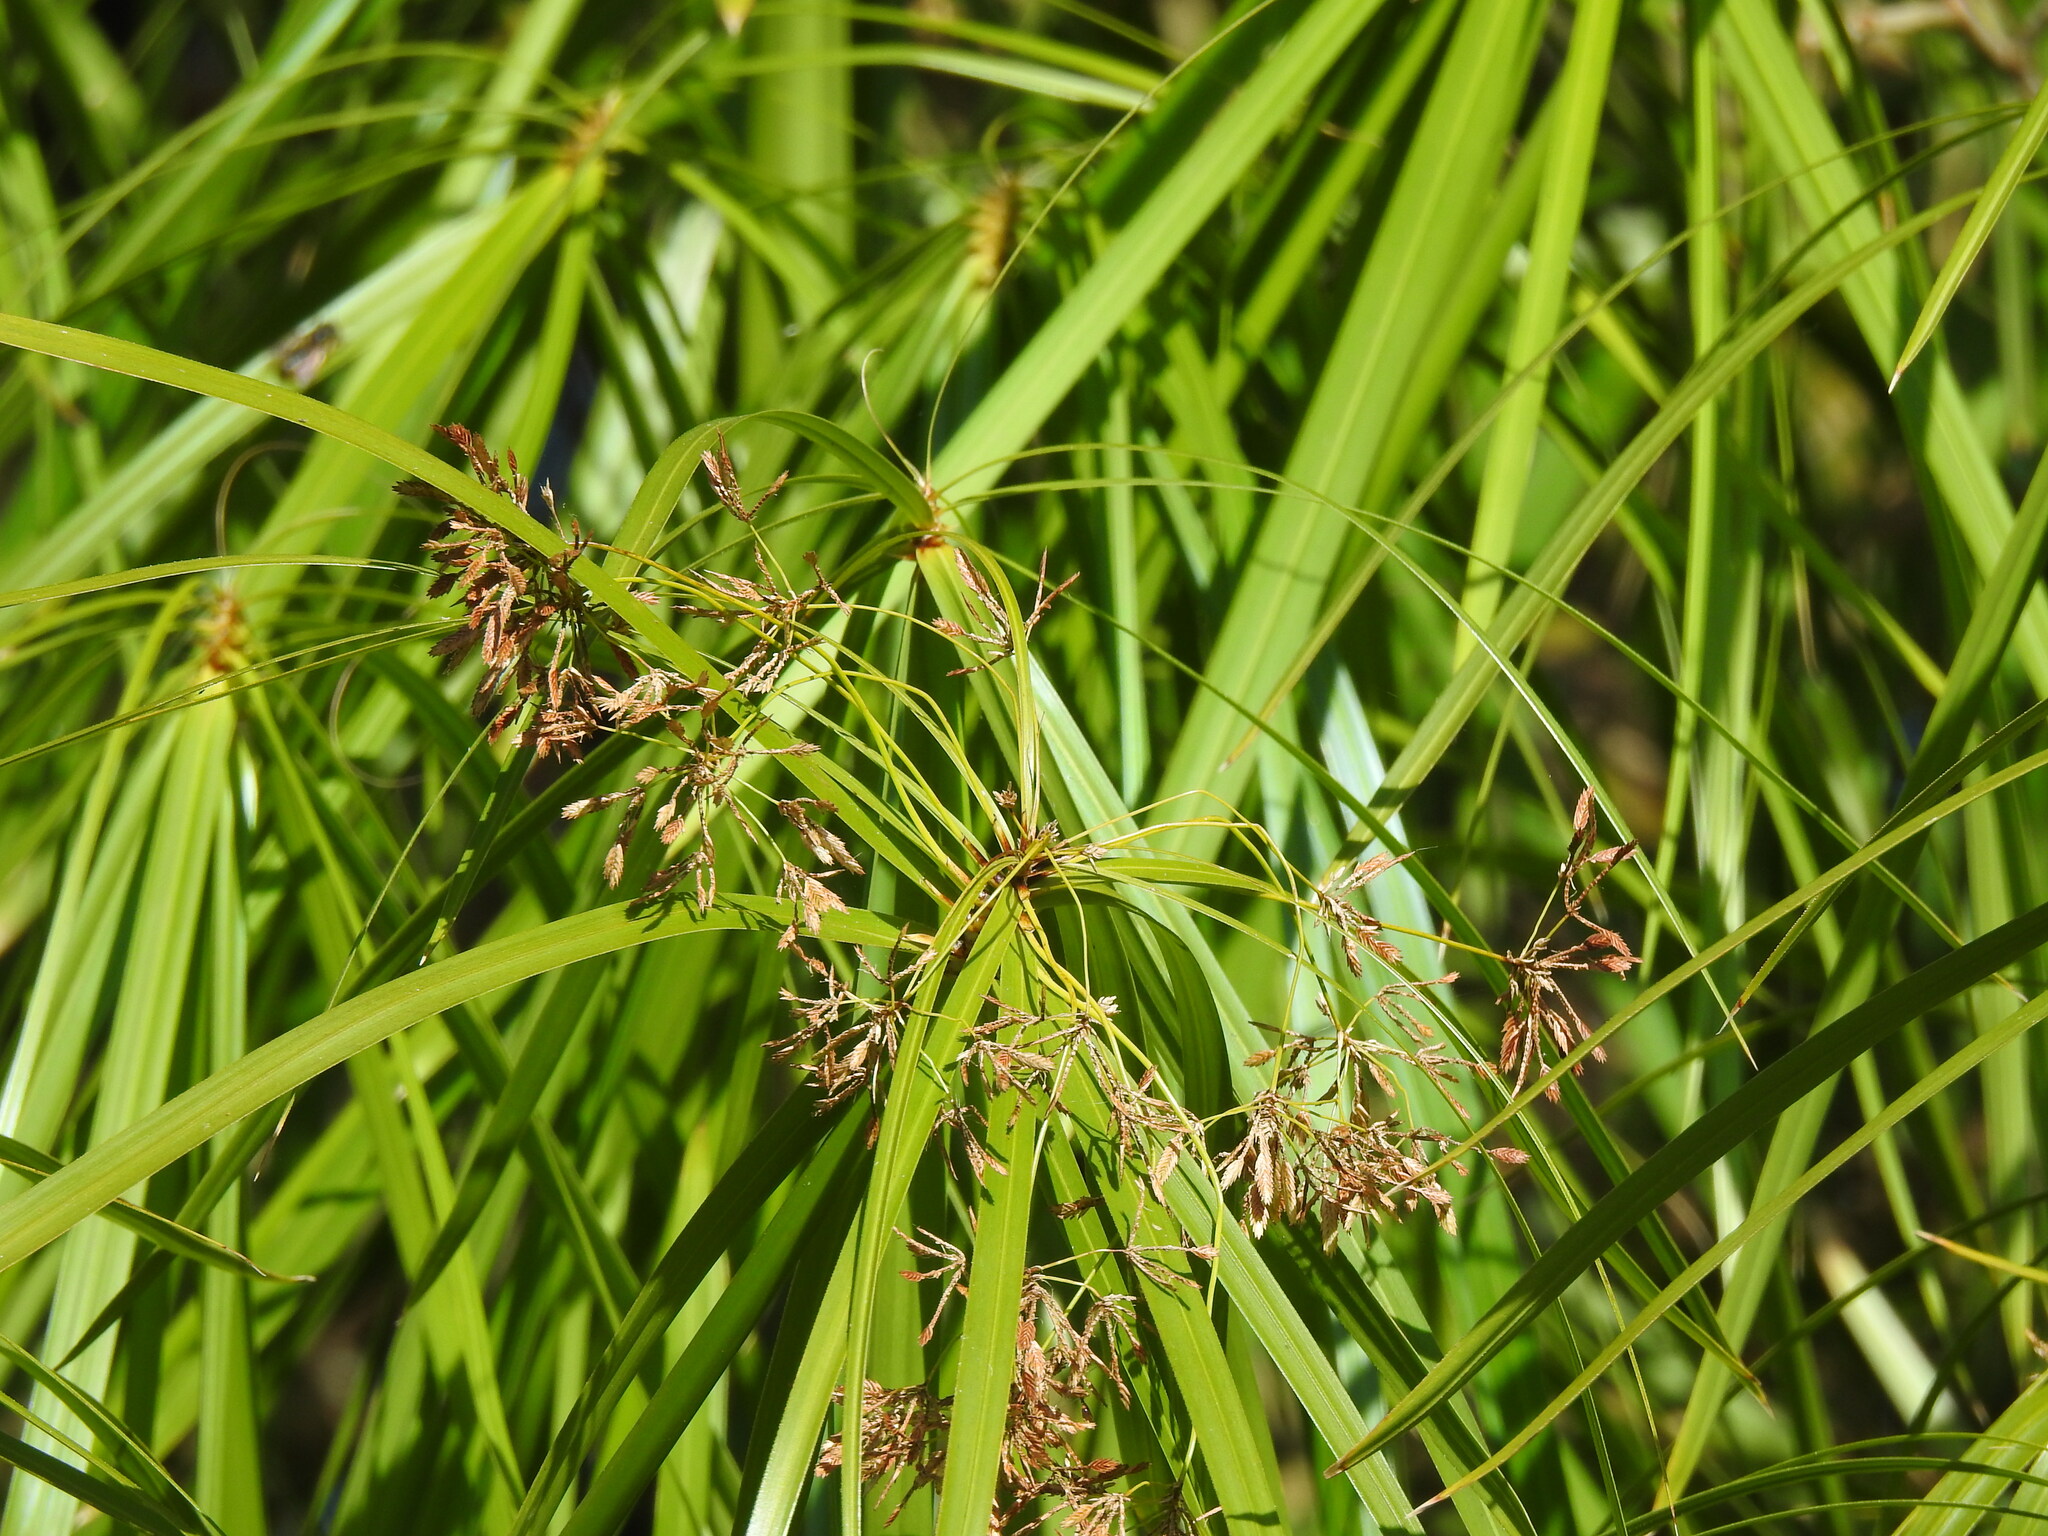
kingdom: Plantae
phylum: Tracheophyta
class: Liliopsida
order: Poales
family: Cyperaceae
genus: Cyperus
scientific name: Cyperus alternifolius
